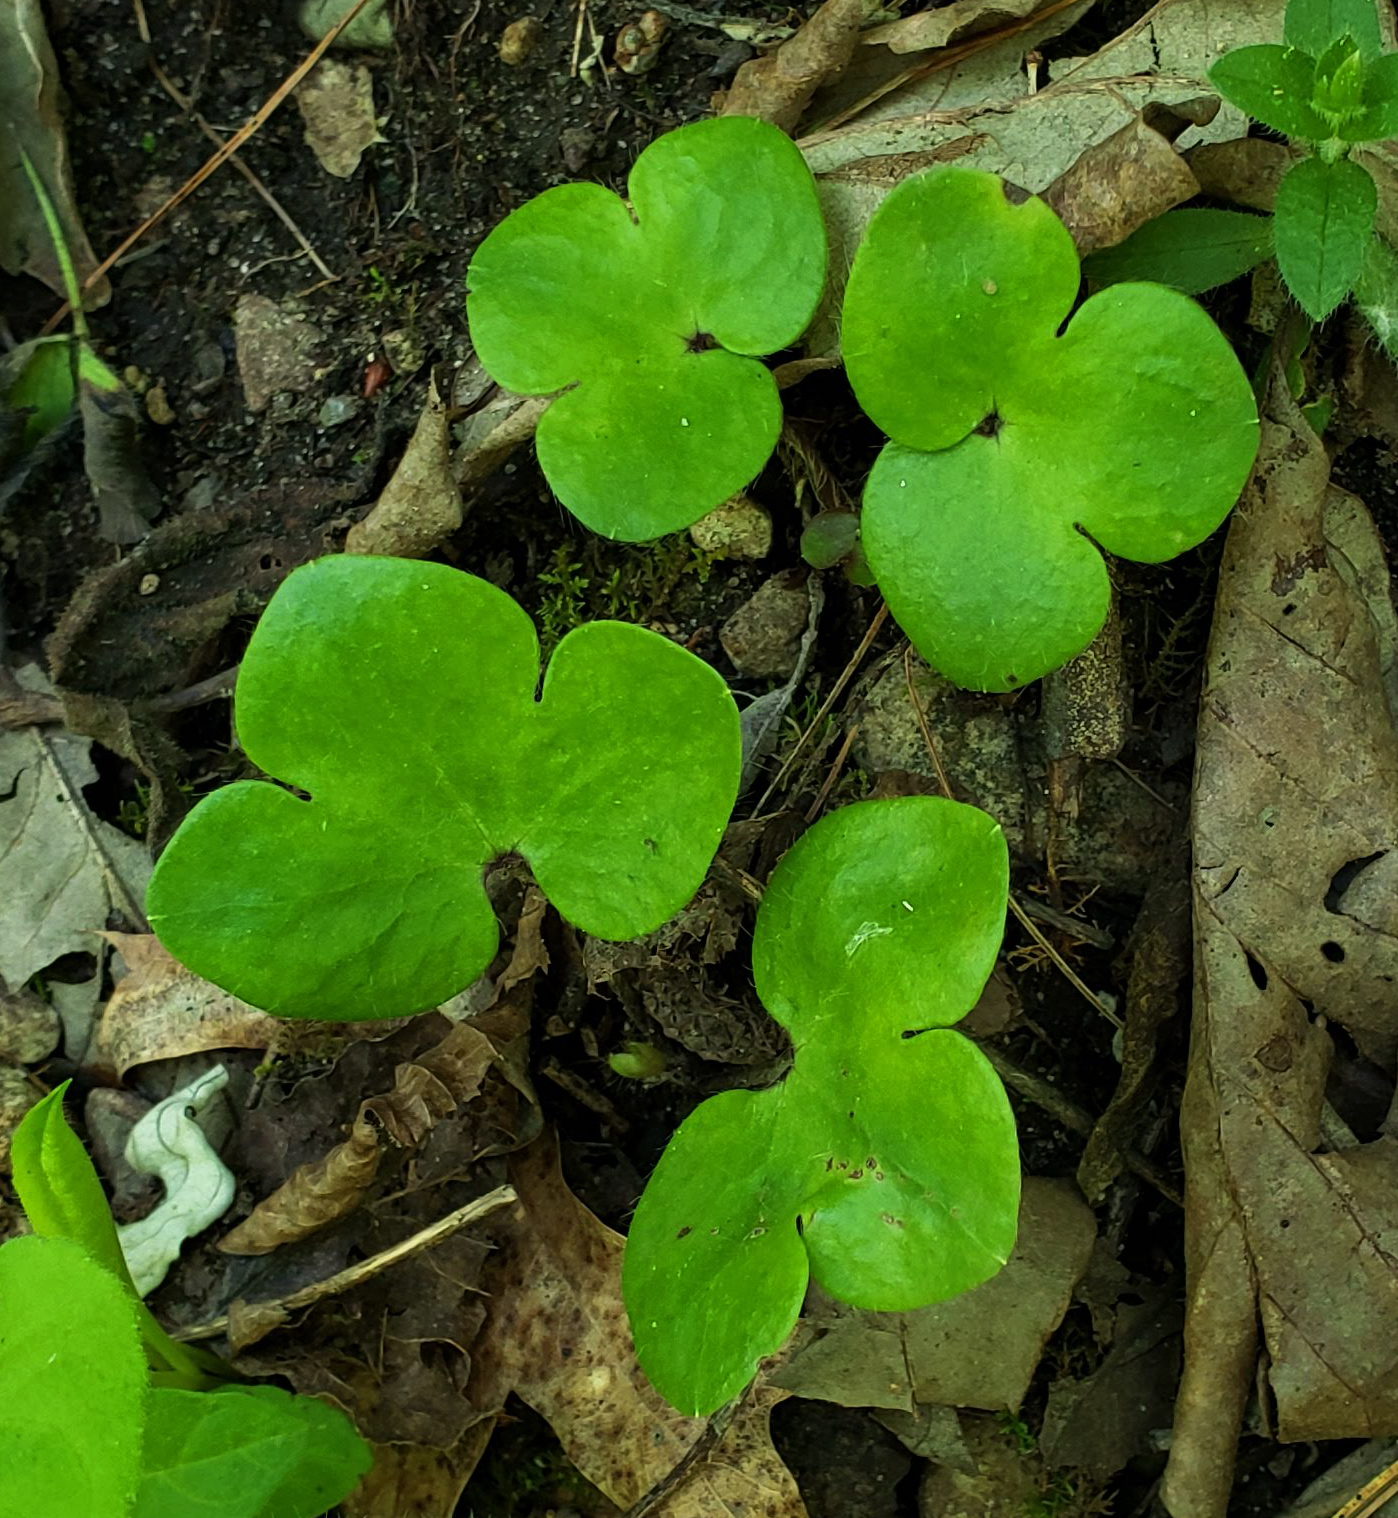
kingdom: Plantae
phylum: Tracheophyta
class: Magnoliopsida
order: Ranunculales
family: Ranunculaceae
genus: Hepatica
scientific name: Hepatica americana
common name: American hepatica
